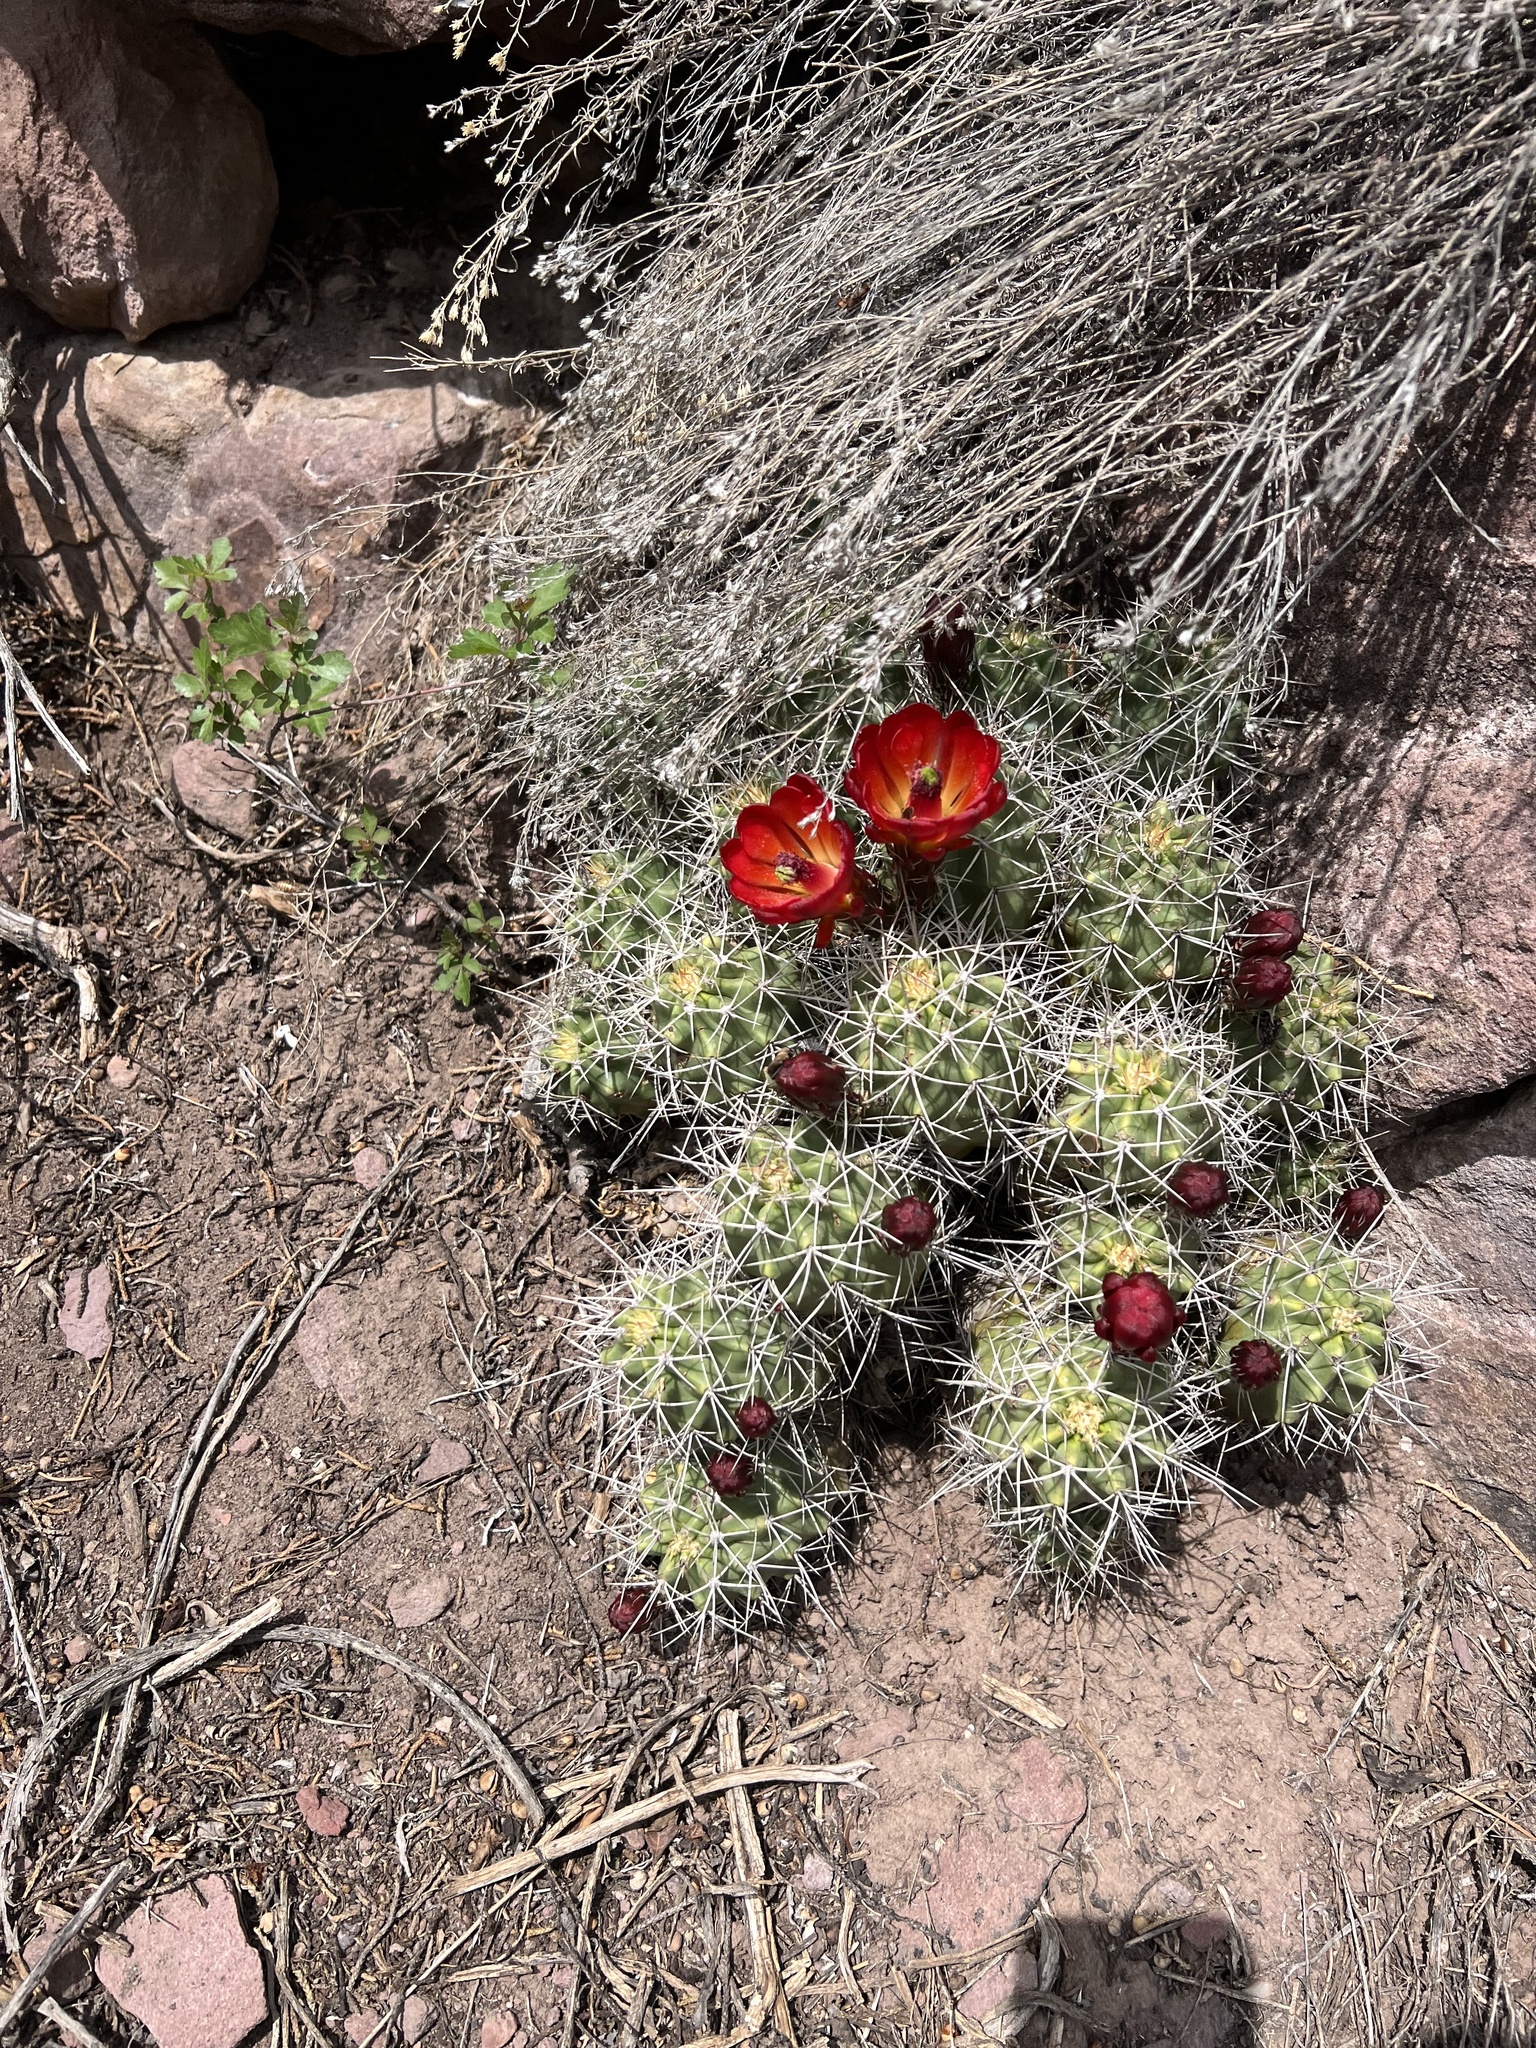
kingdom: Plantae
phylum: Tracheophyta
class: Magnoliopsida
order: Caryophyllales
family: Cactaceae
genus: Echinocereus
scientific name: Echinocereus triglochidiatus
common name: Claretcup hedgehog
